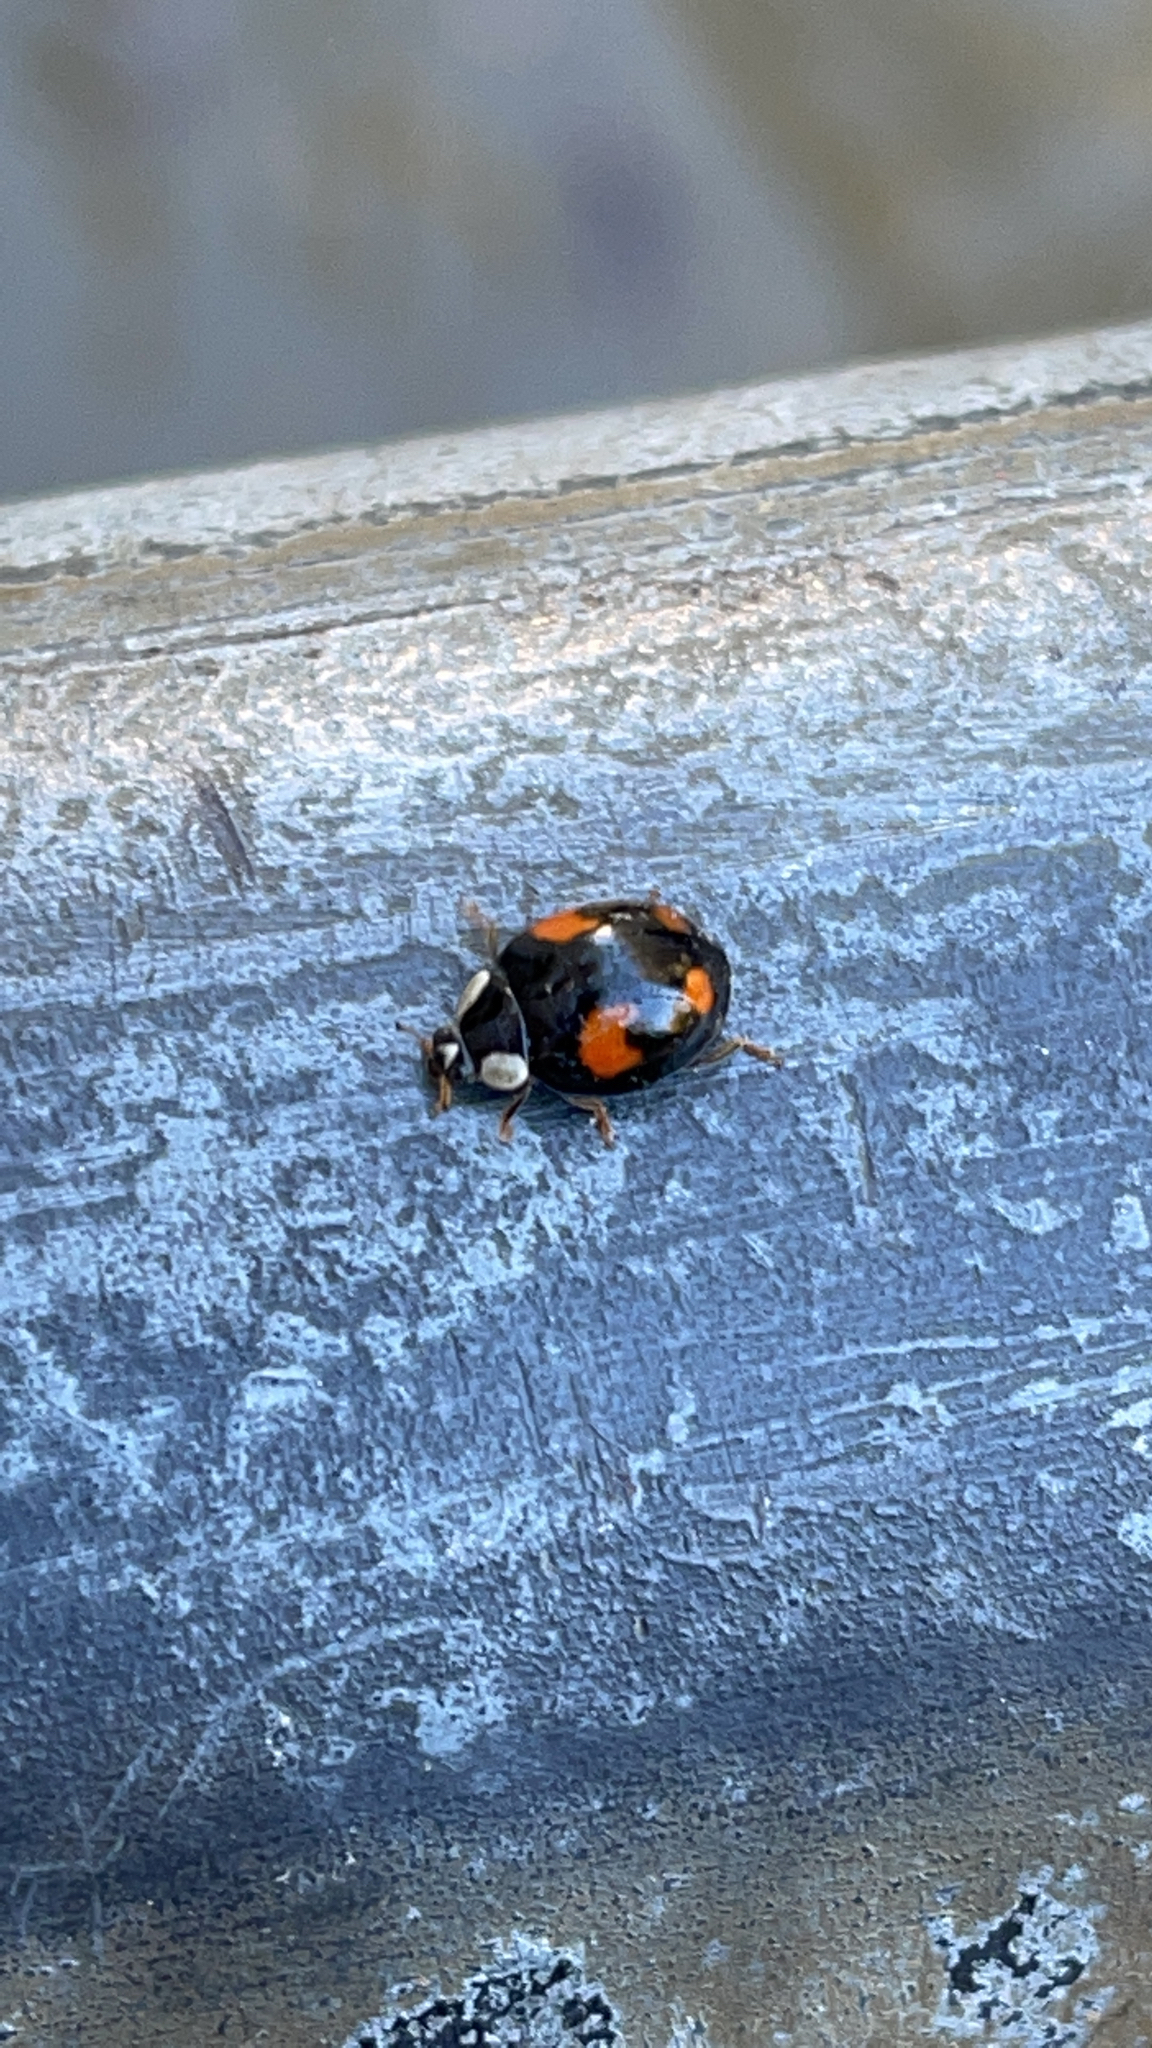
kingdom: Animalia
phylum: Arthropoda
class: Insecta
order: Coleoptera
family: Coccinellidae
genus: Harmonia
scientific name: Harmonia axyridis
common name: Harlequin ladybird
